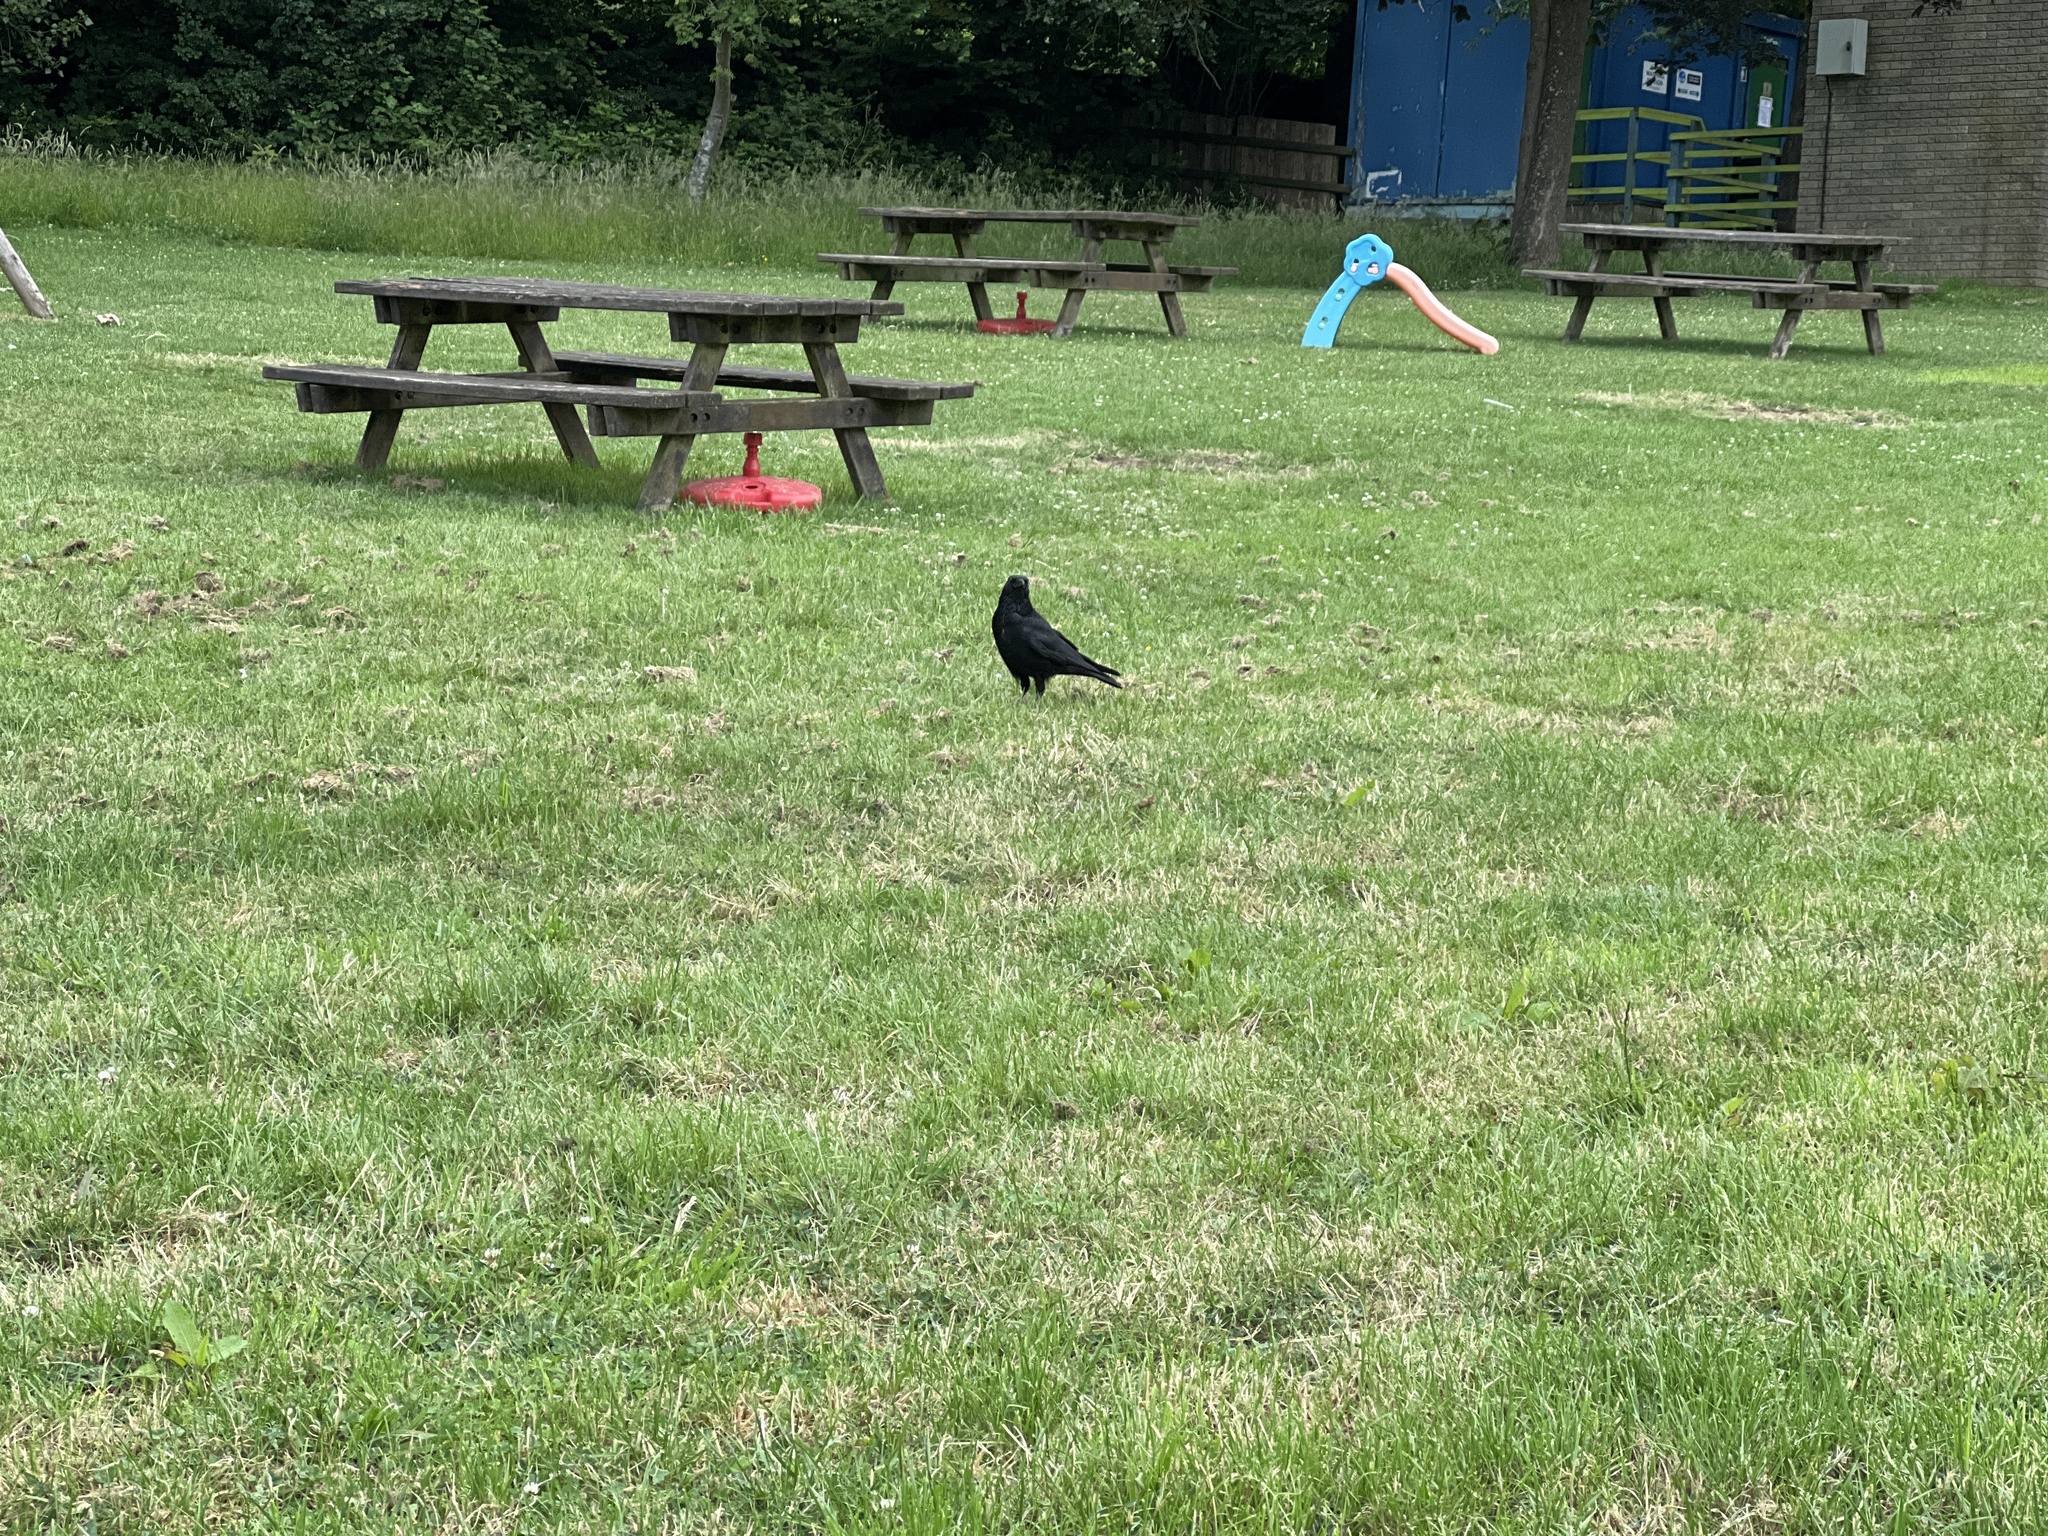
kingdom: Animalia
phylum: Chordata
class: Aves
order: Passeriformes
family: Corvidae
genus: Corvus
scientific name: Corvus corone
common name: Carrion crow
